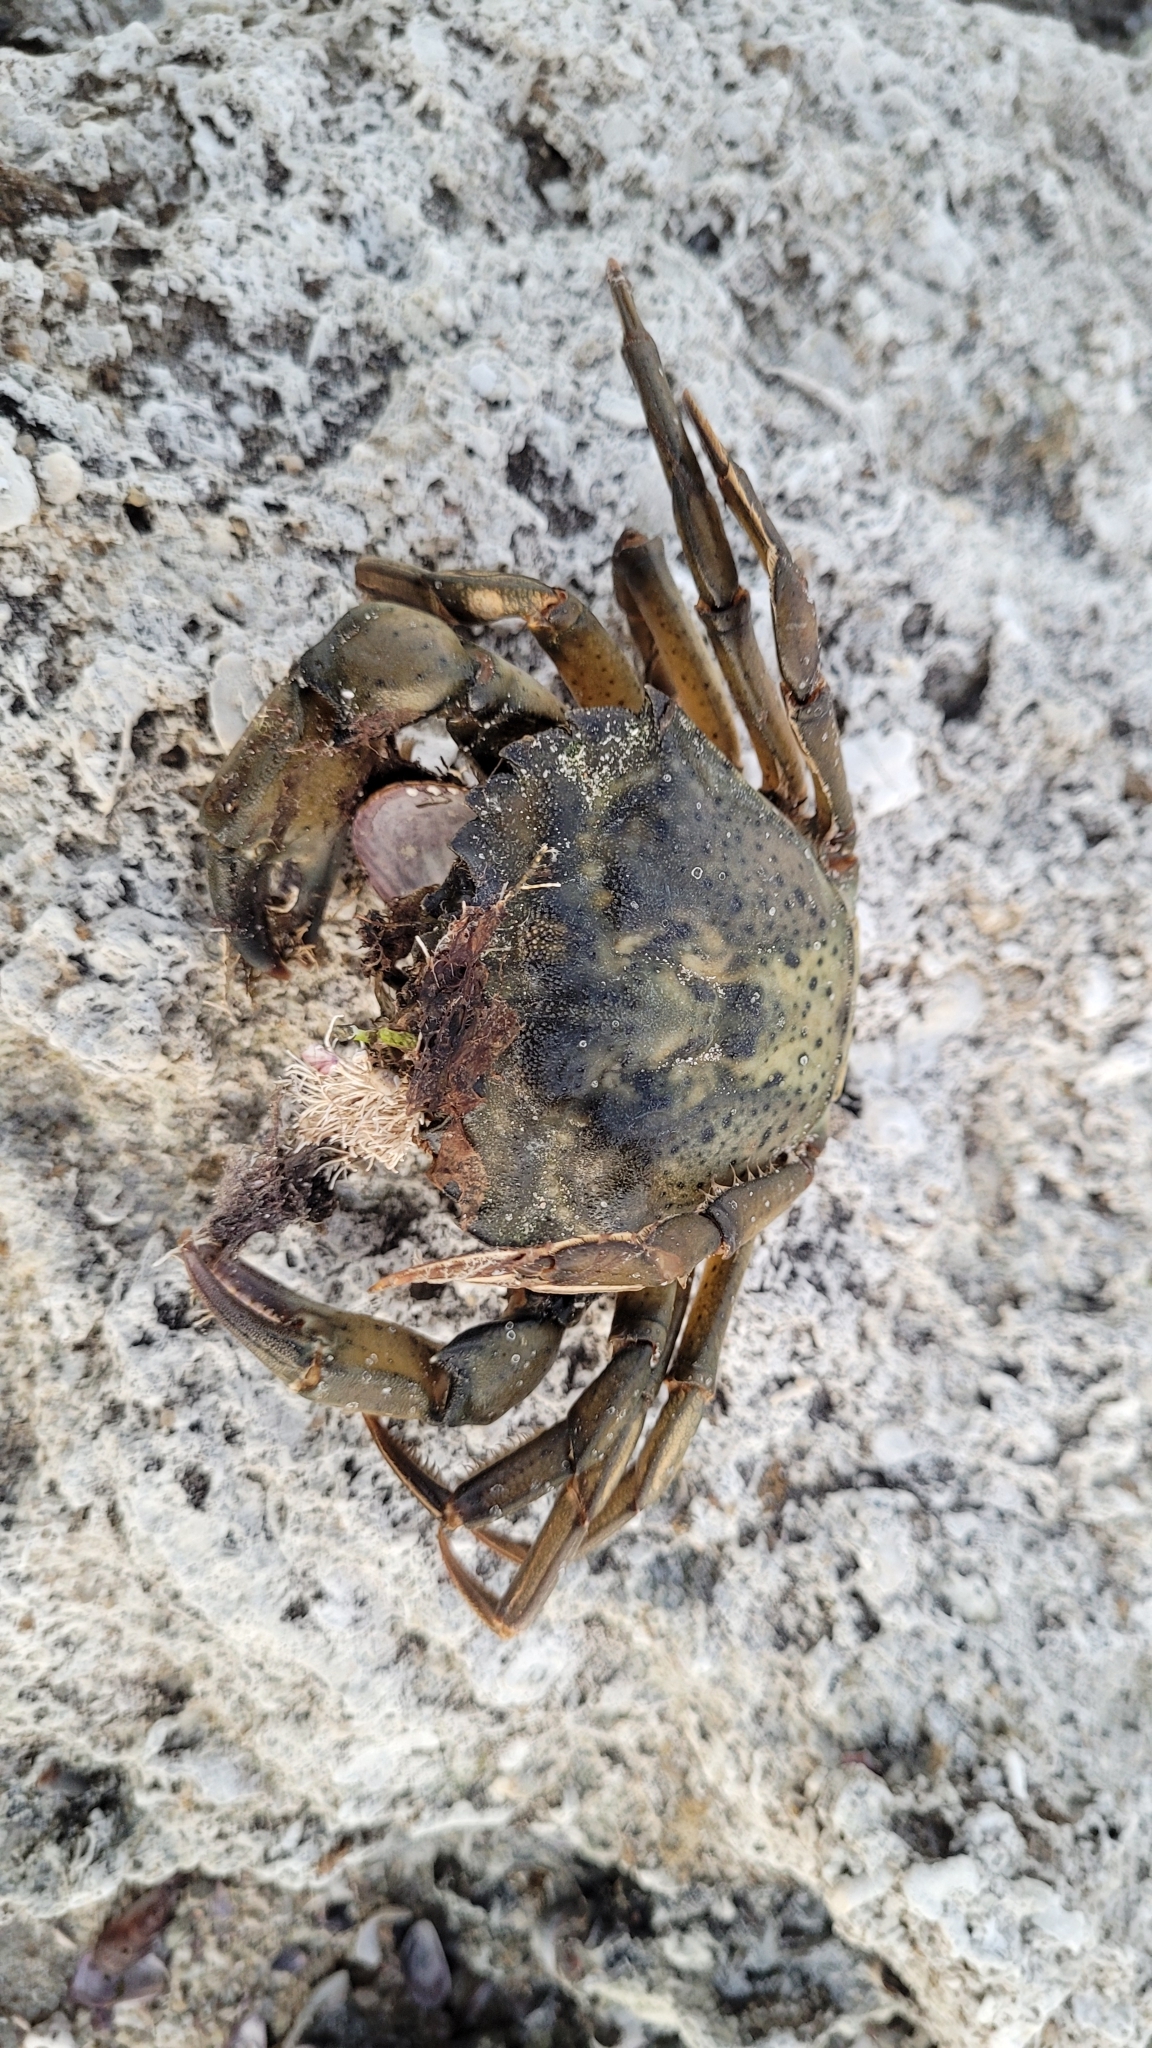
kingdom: Animalia
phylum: Arthropoda
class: Malacostraca
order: Decapoda
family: Carcinidae
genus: Carcinus
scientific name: Carcinus maenas
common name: European green crab
